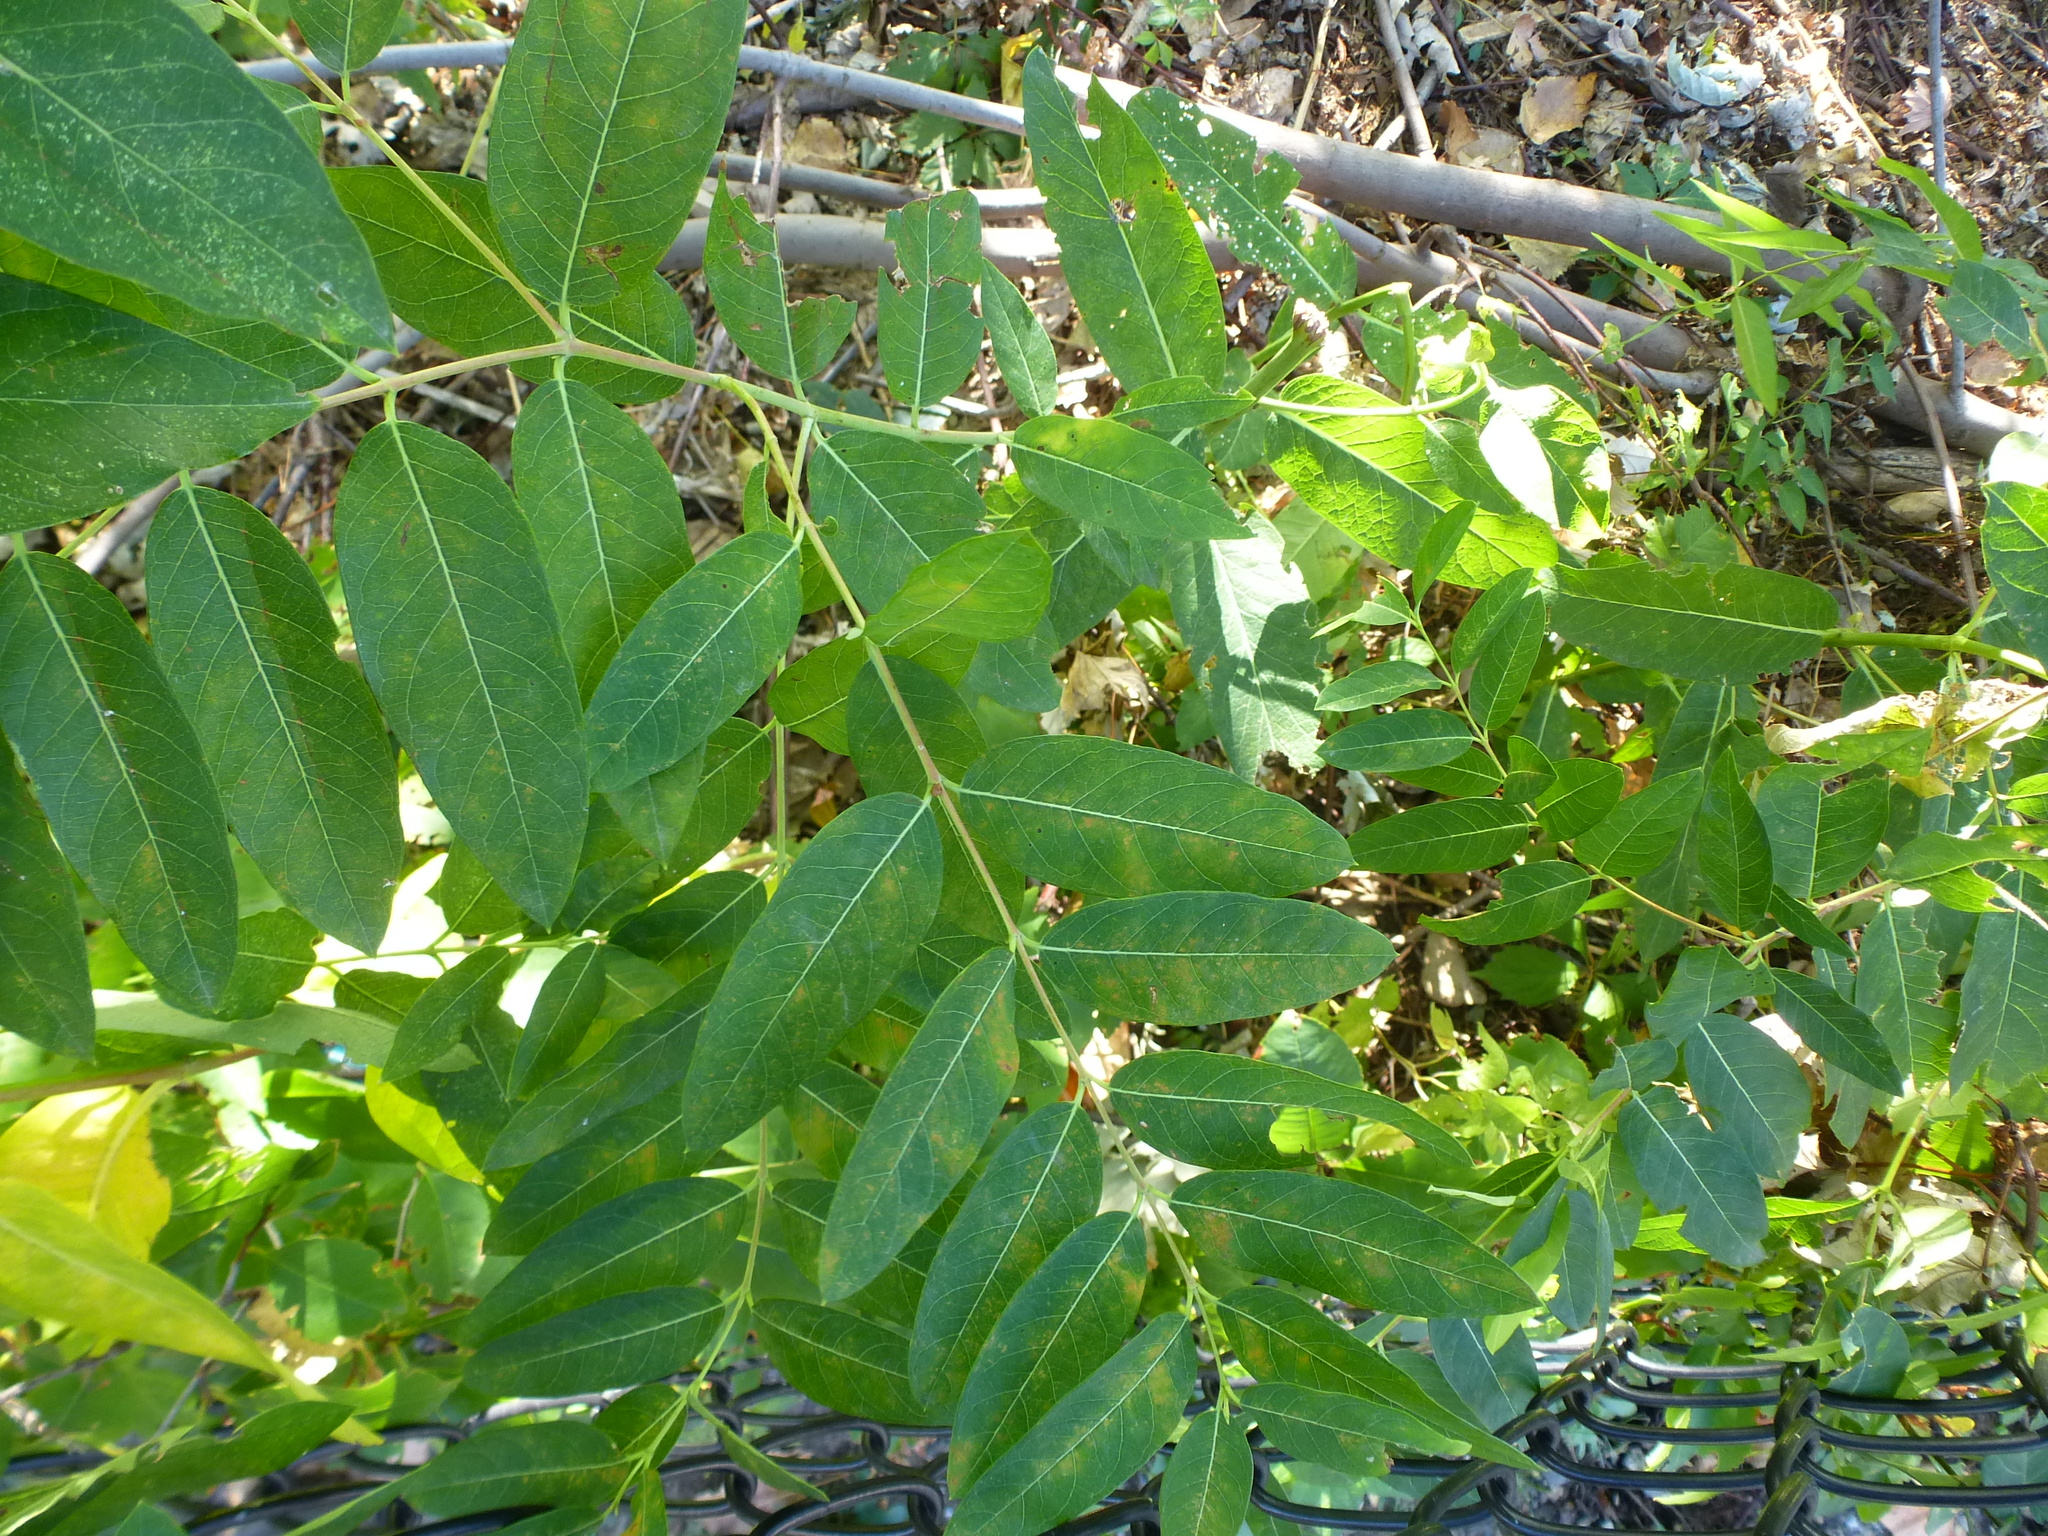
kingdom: Plantae
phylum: Tracheophyta
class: Magnoliopsida
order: Gentianales
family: Apocynaceae
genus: Apocynum
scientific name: Apocynum cannabinum
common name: Hemp dogbane
